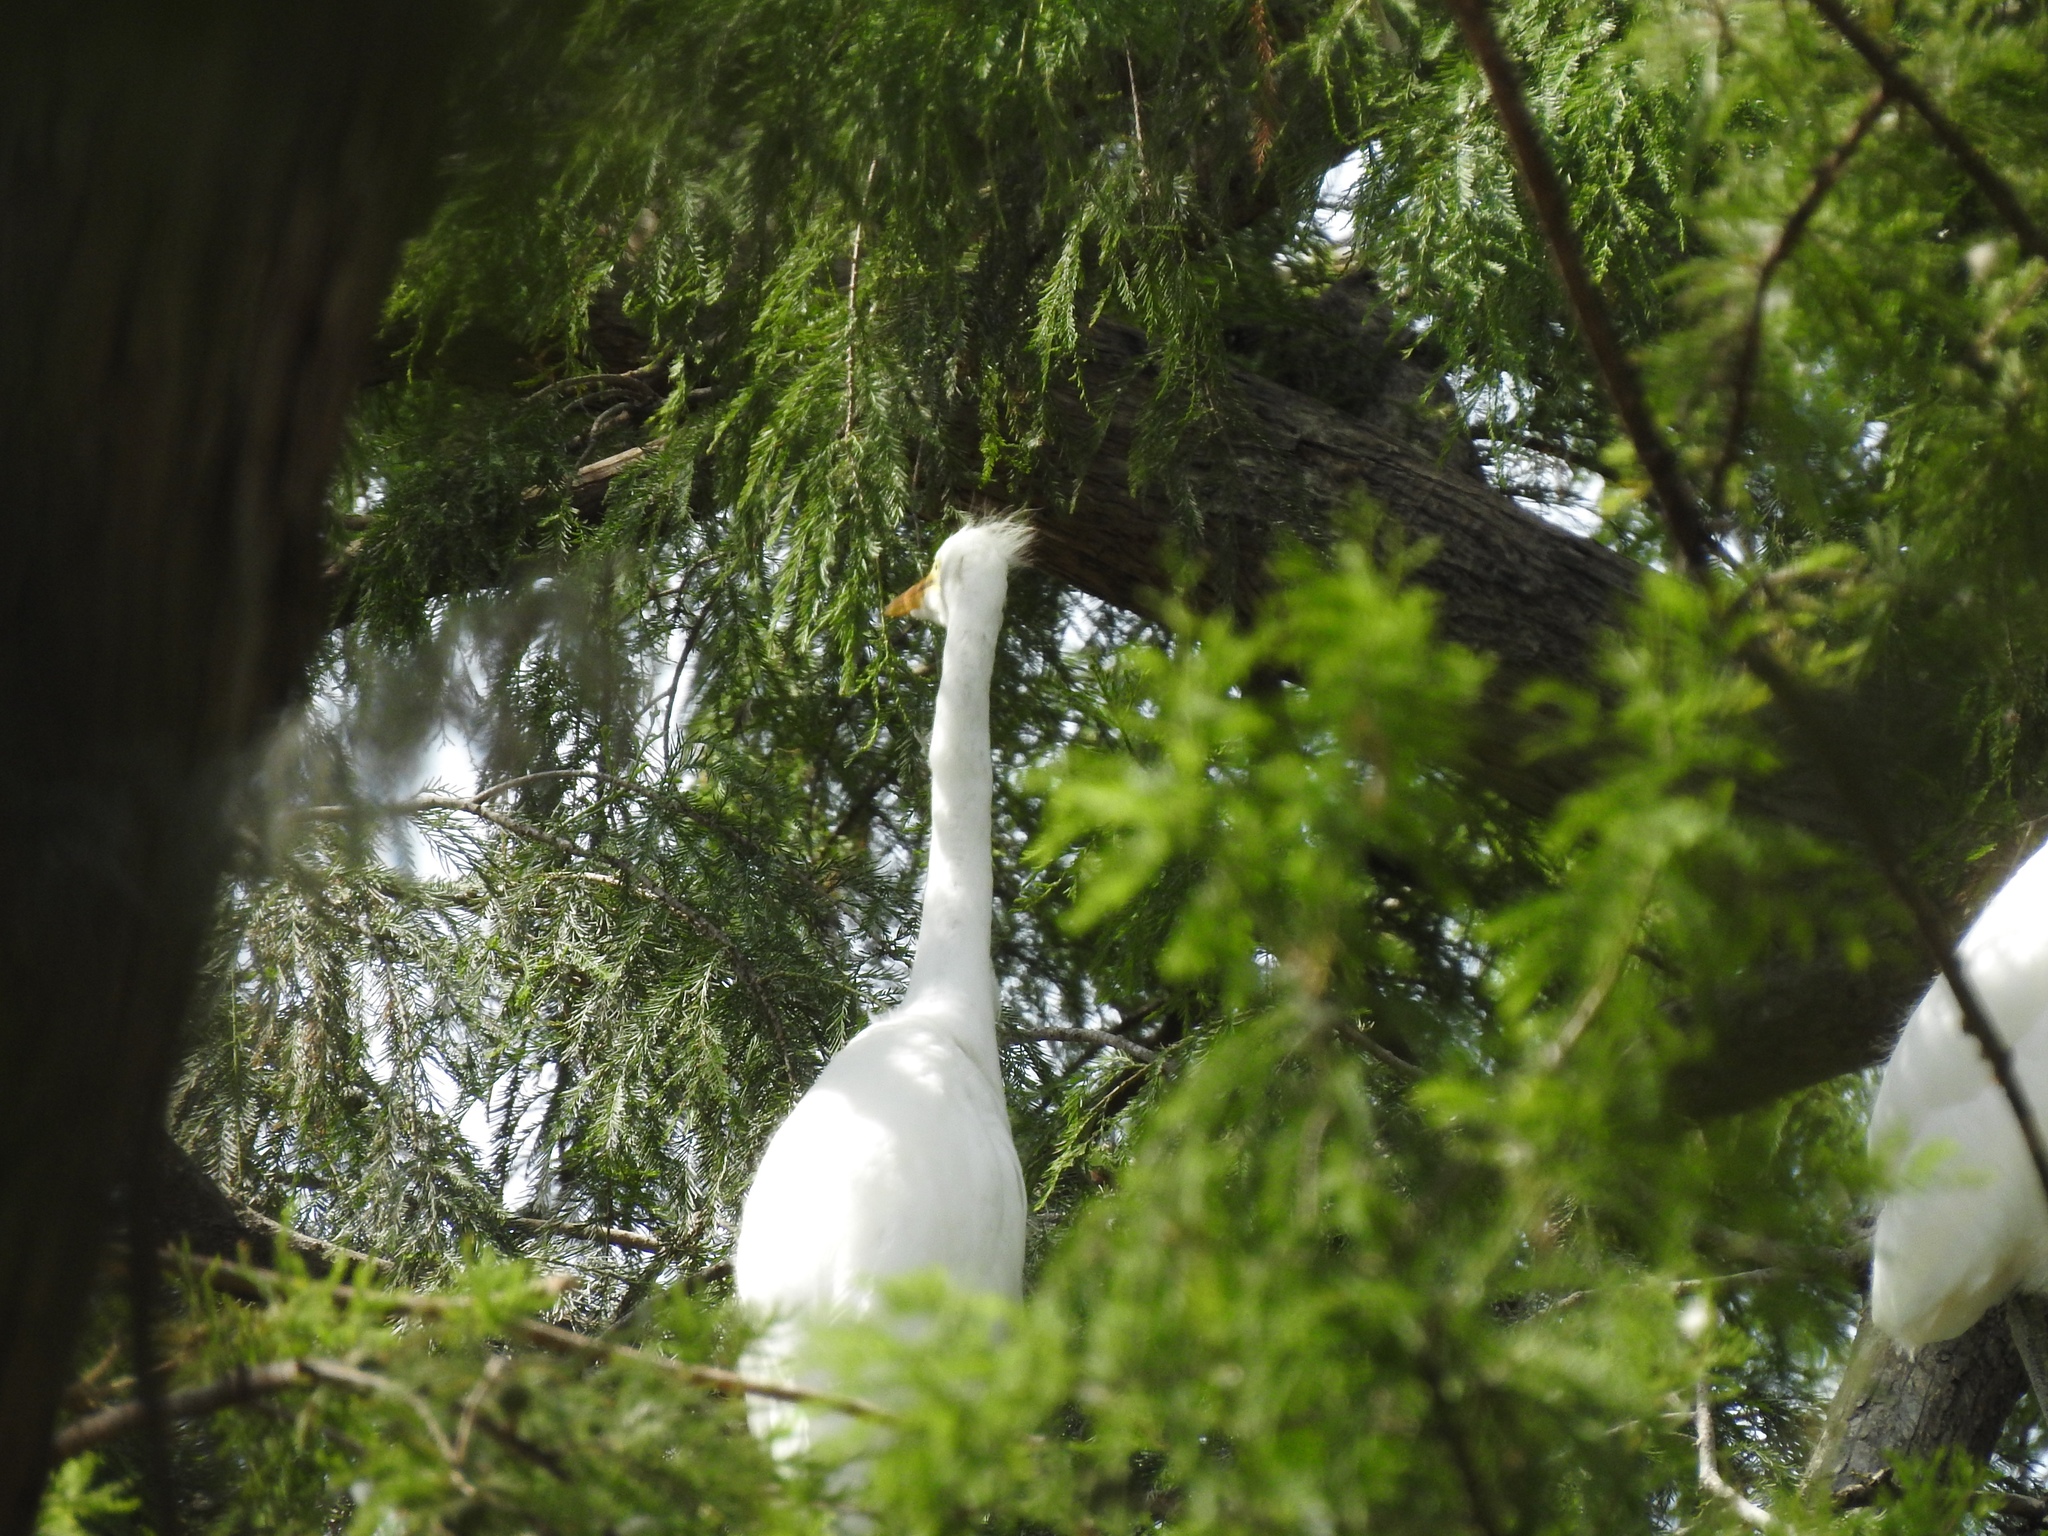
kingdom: Animalia
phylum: Chordata
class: Aves
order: Pelecaniformes
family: Ardeidae
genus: Ardea
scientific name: Ardea alba
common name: Great egret
